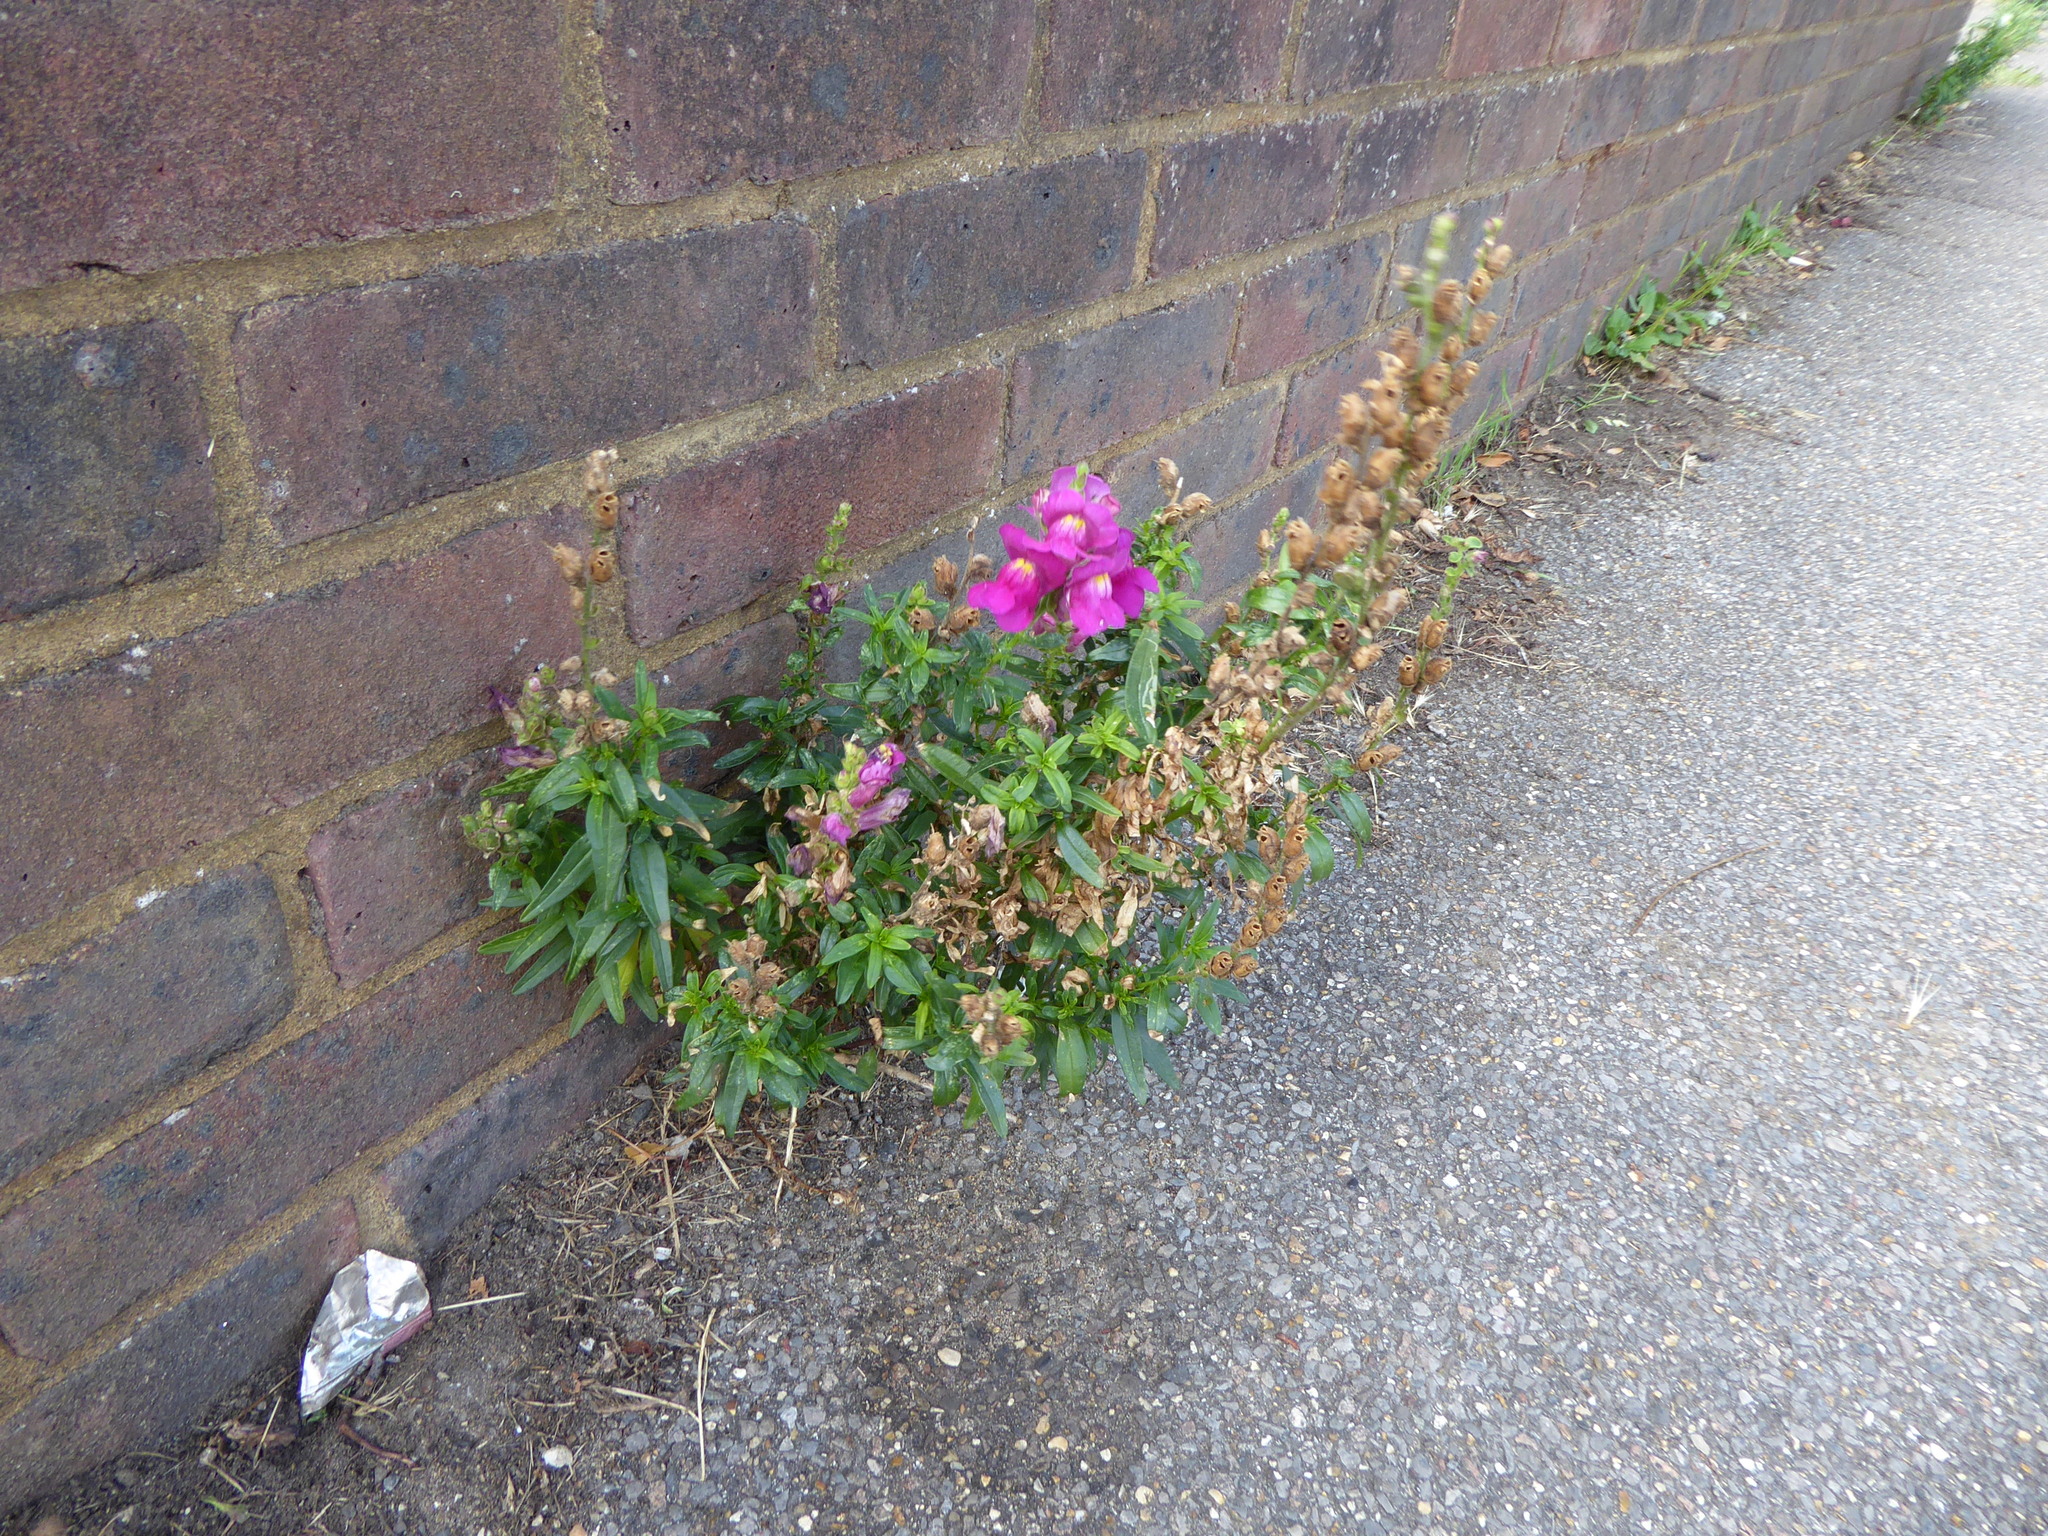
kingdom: Plantae
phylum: Tracheophyta
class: Magnoliopsida
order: Lamiales
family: Plantaginaceae
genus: Antirrhinum
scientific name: Antirrhinum majus
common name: Snapdragon
